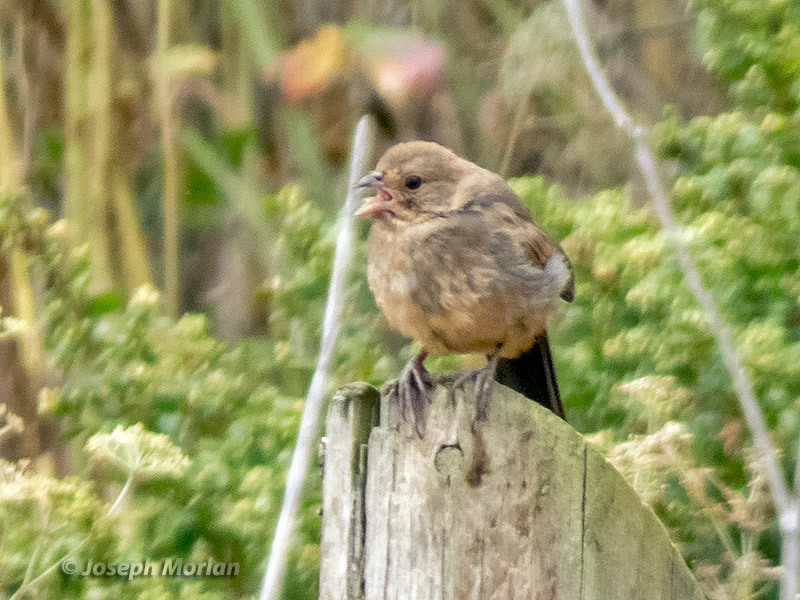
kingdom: Animalia
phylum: Chordata
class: Aves
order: Passeriformes
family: Passerellidae
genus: Melozone
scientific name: Melozone crissalis
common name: California towhee
